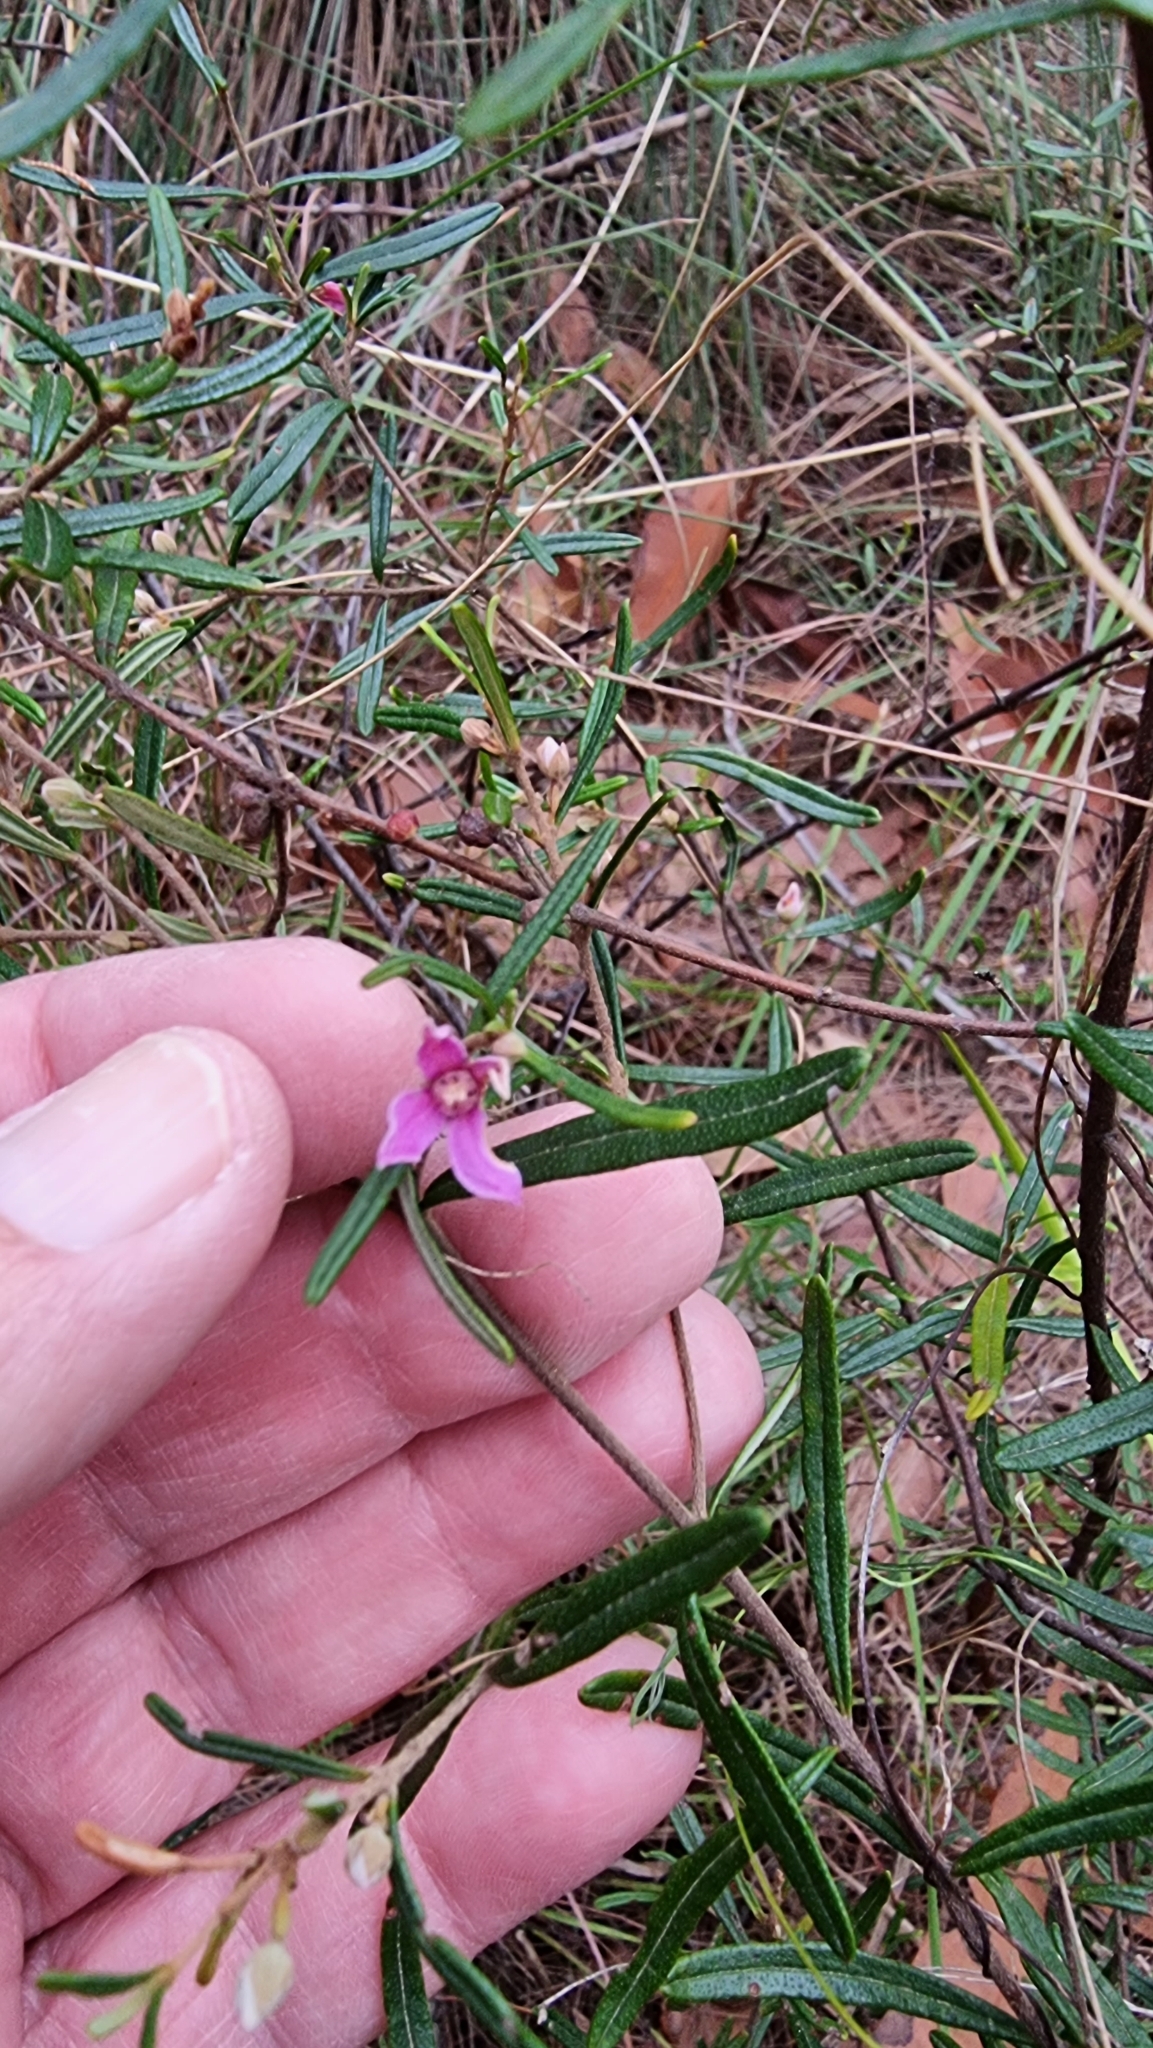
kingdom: Plantae
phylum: Tracheophyta
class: Magnoliopsida
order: Sapindales
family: Rutaceae
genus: Boronia
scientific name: Boronia rosmarinifolia
